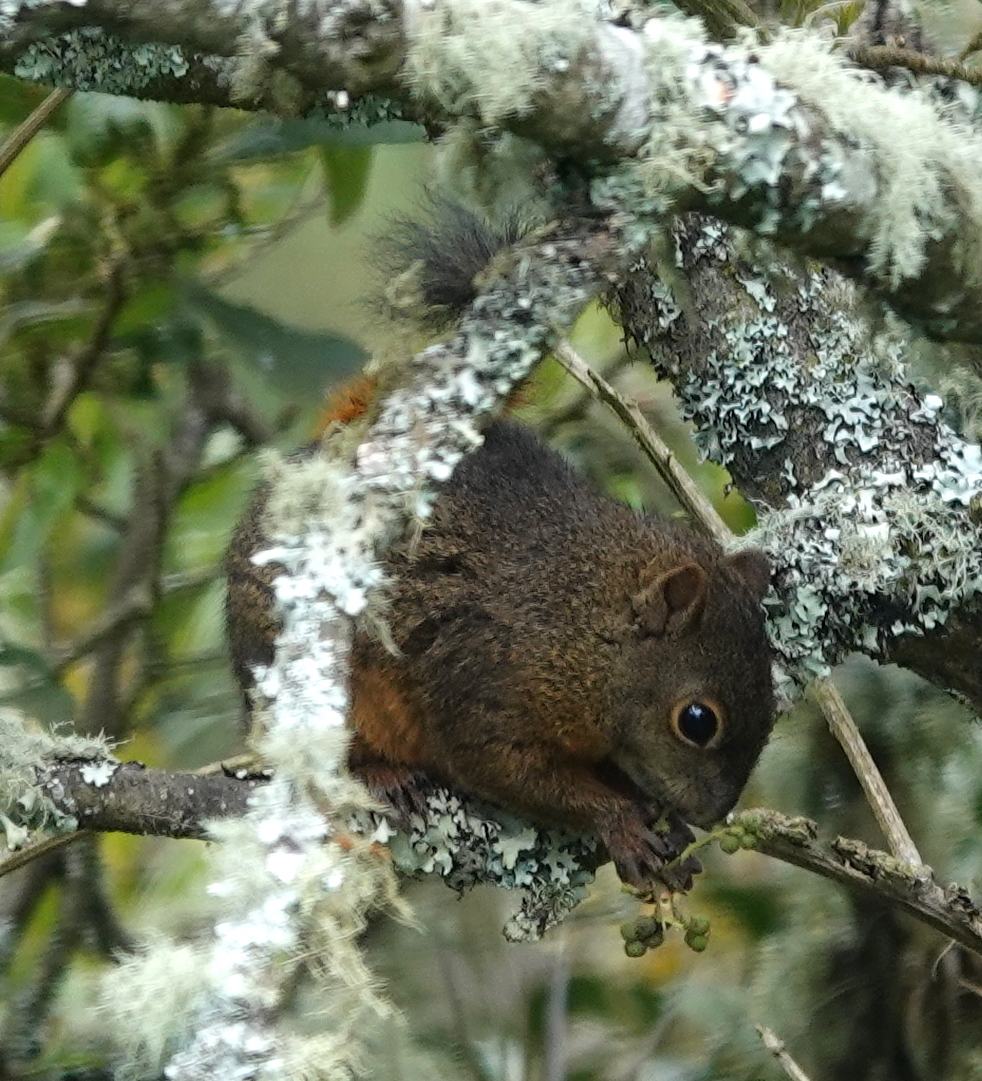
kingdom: Animalia
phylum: Chordata
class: Mammalia
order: Rodentia
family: Sciuridae
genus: Sciurus
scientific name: Sciurus granatensis
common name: Red-tailed squirrel
